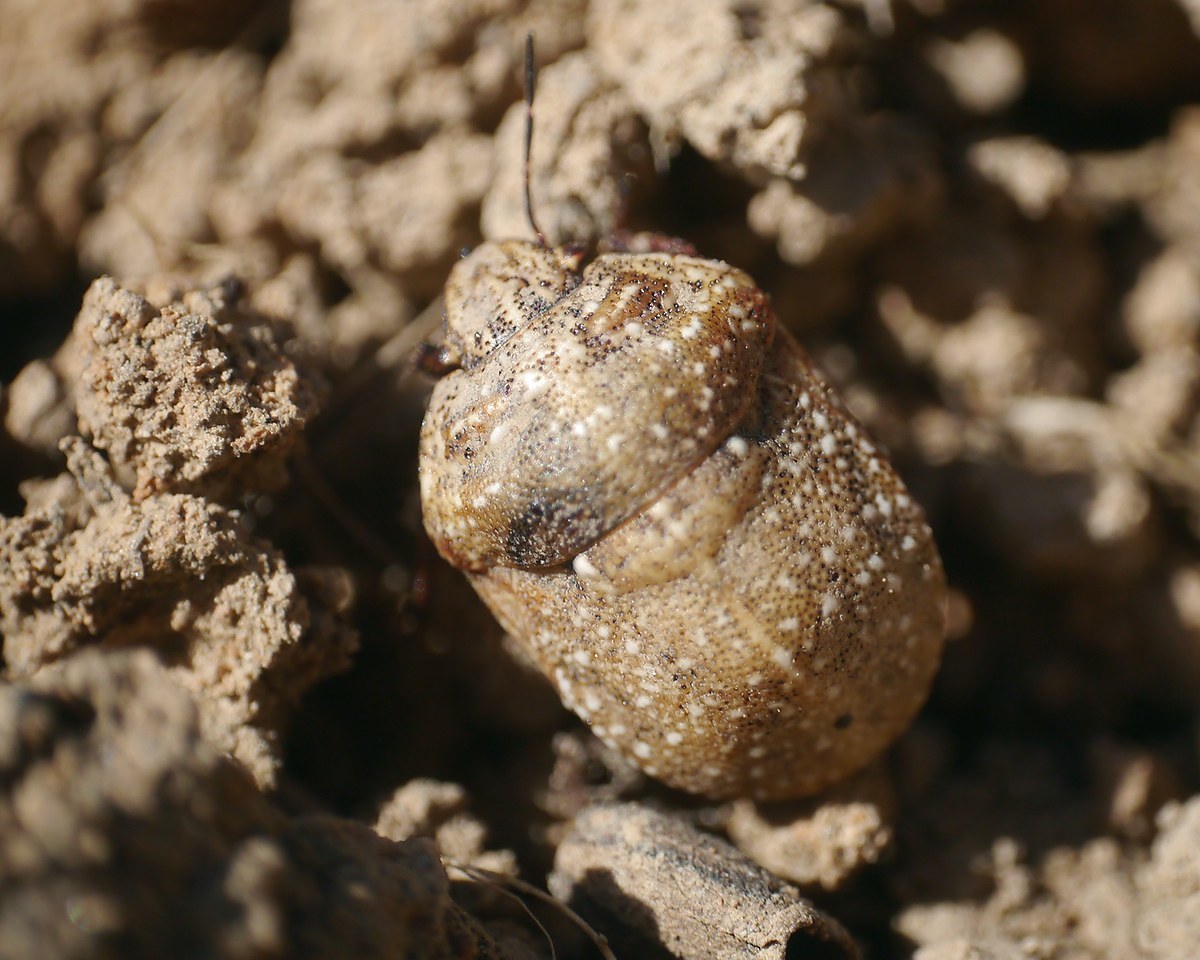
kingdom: Animalia
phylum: Arthropoda
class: Insecta
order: Hemiptera
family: Scutelleridae
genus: Psacasta
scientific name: Psacasta exanthematica
